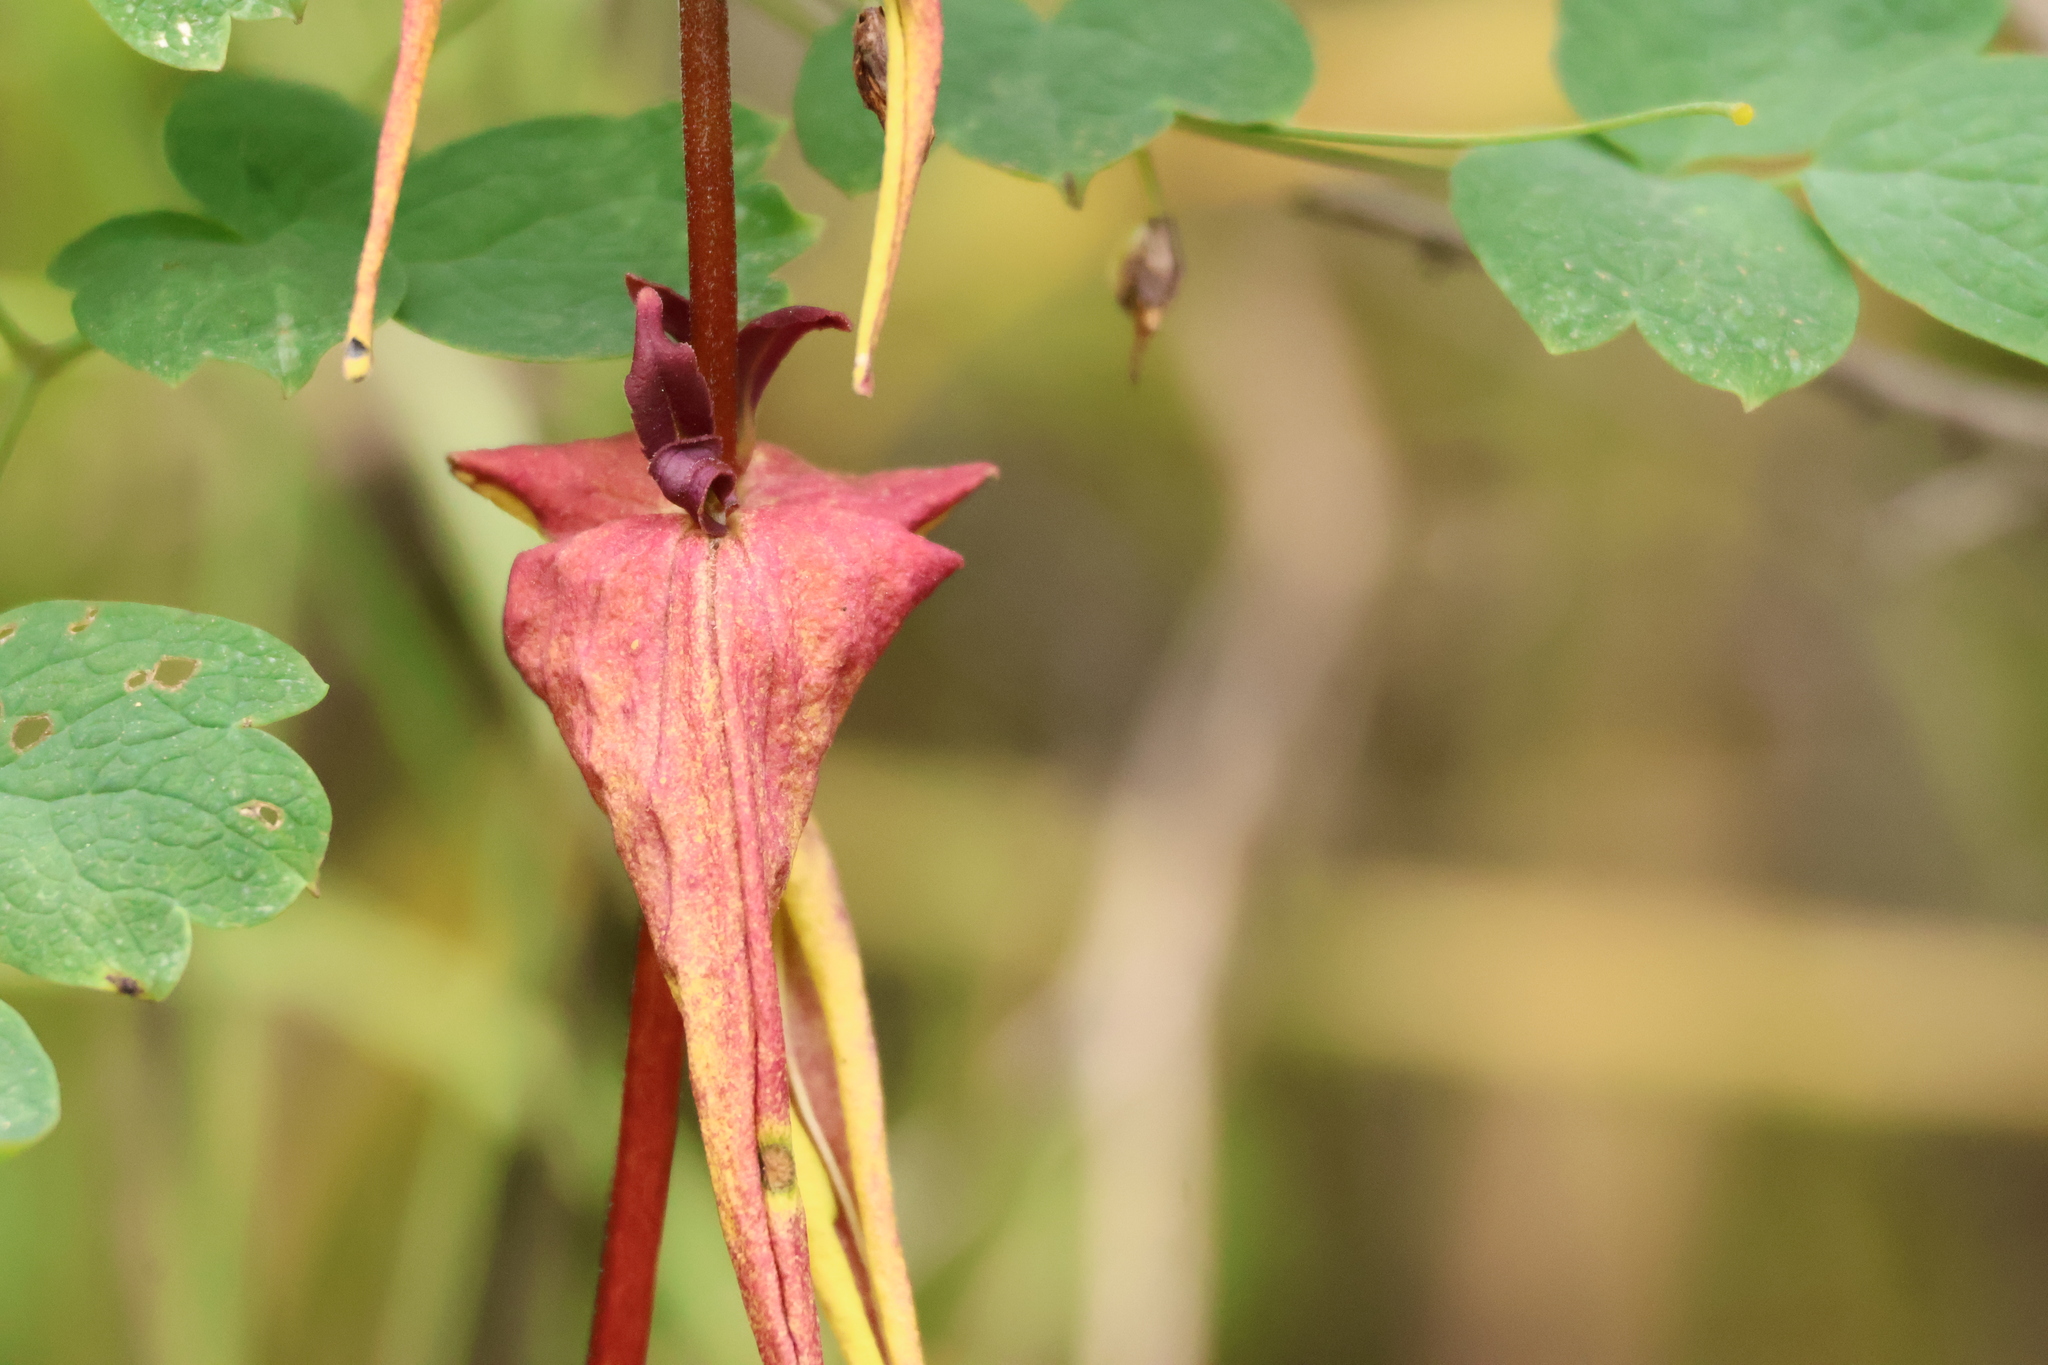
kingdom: Plantae
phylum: Tracheophyta
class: Magnoliopsida
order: Lamiales
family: Plantaginaceae
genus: Collinsia
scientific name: Collinsia heterophylla
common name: Chinese-houses
